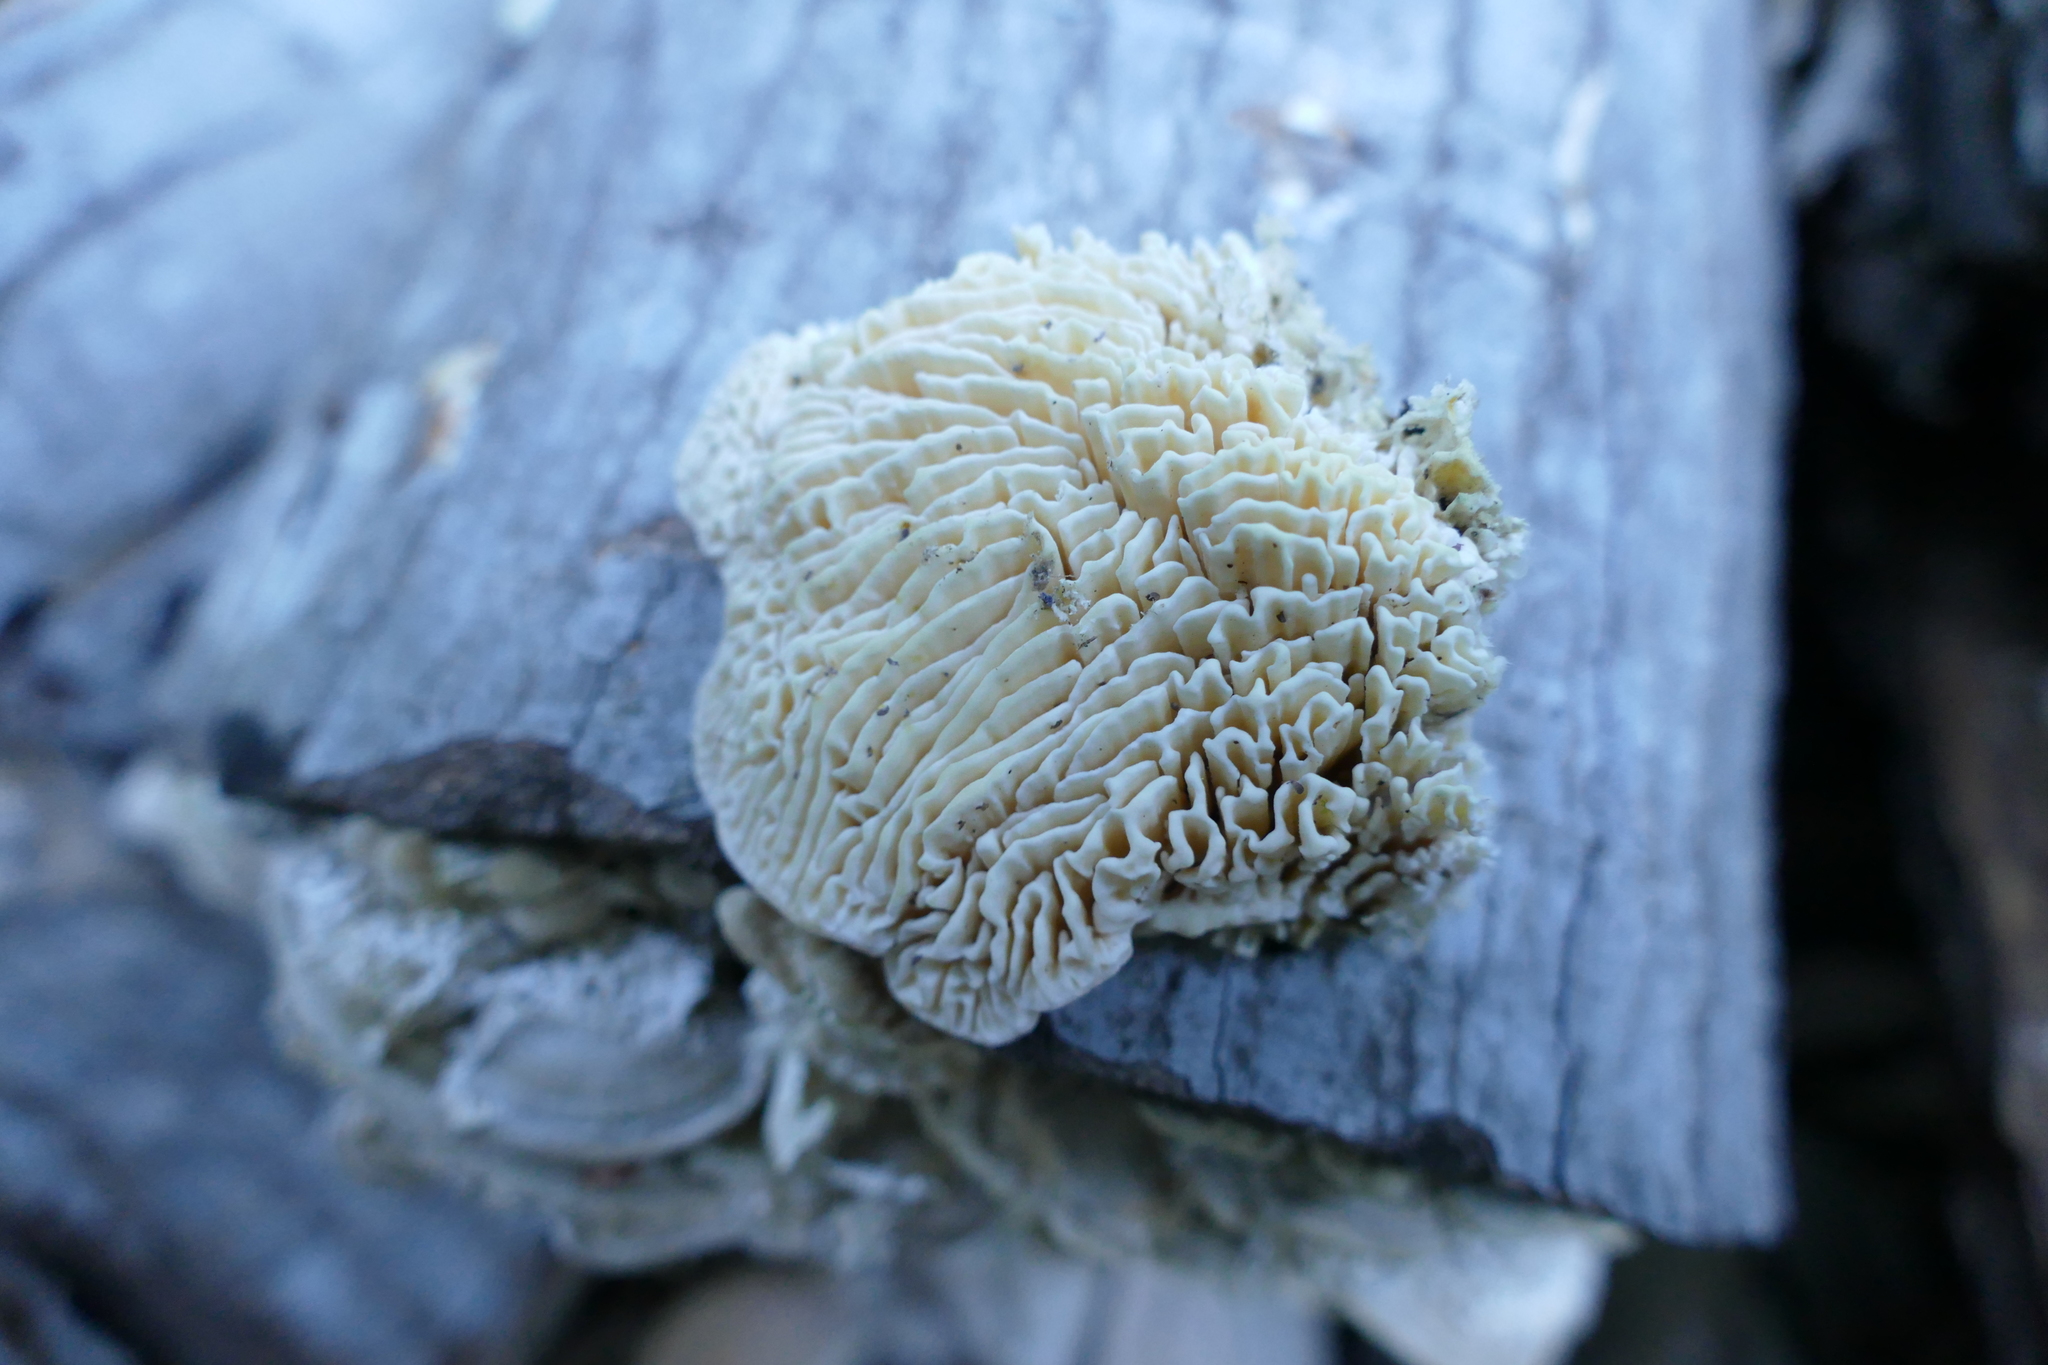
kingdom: Fungi
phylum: Basidiomycota
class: Agaricomycetes
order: Polyporales
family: Polyporaceae
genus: Lenzites
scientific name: Lenzites betulinus
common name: Birch mazegill
